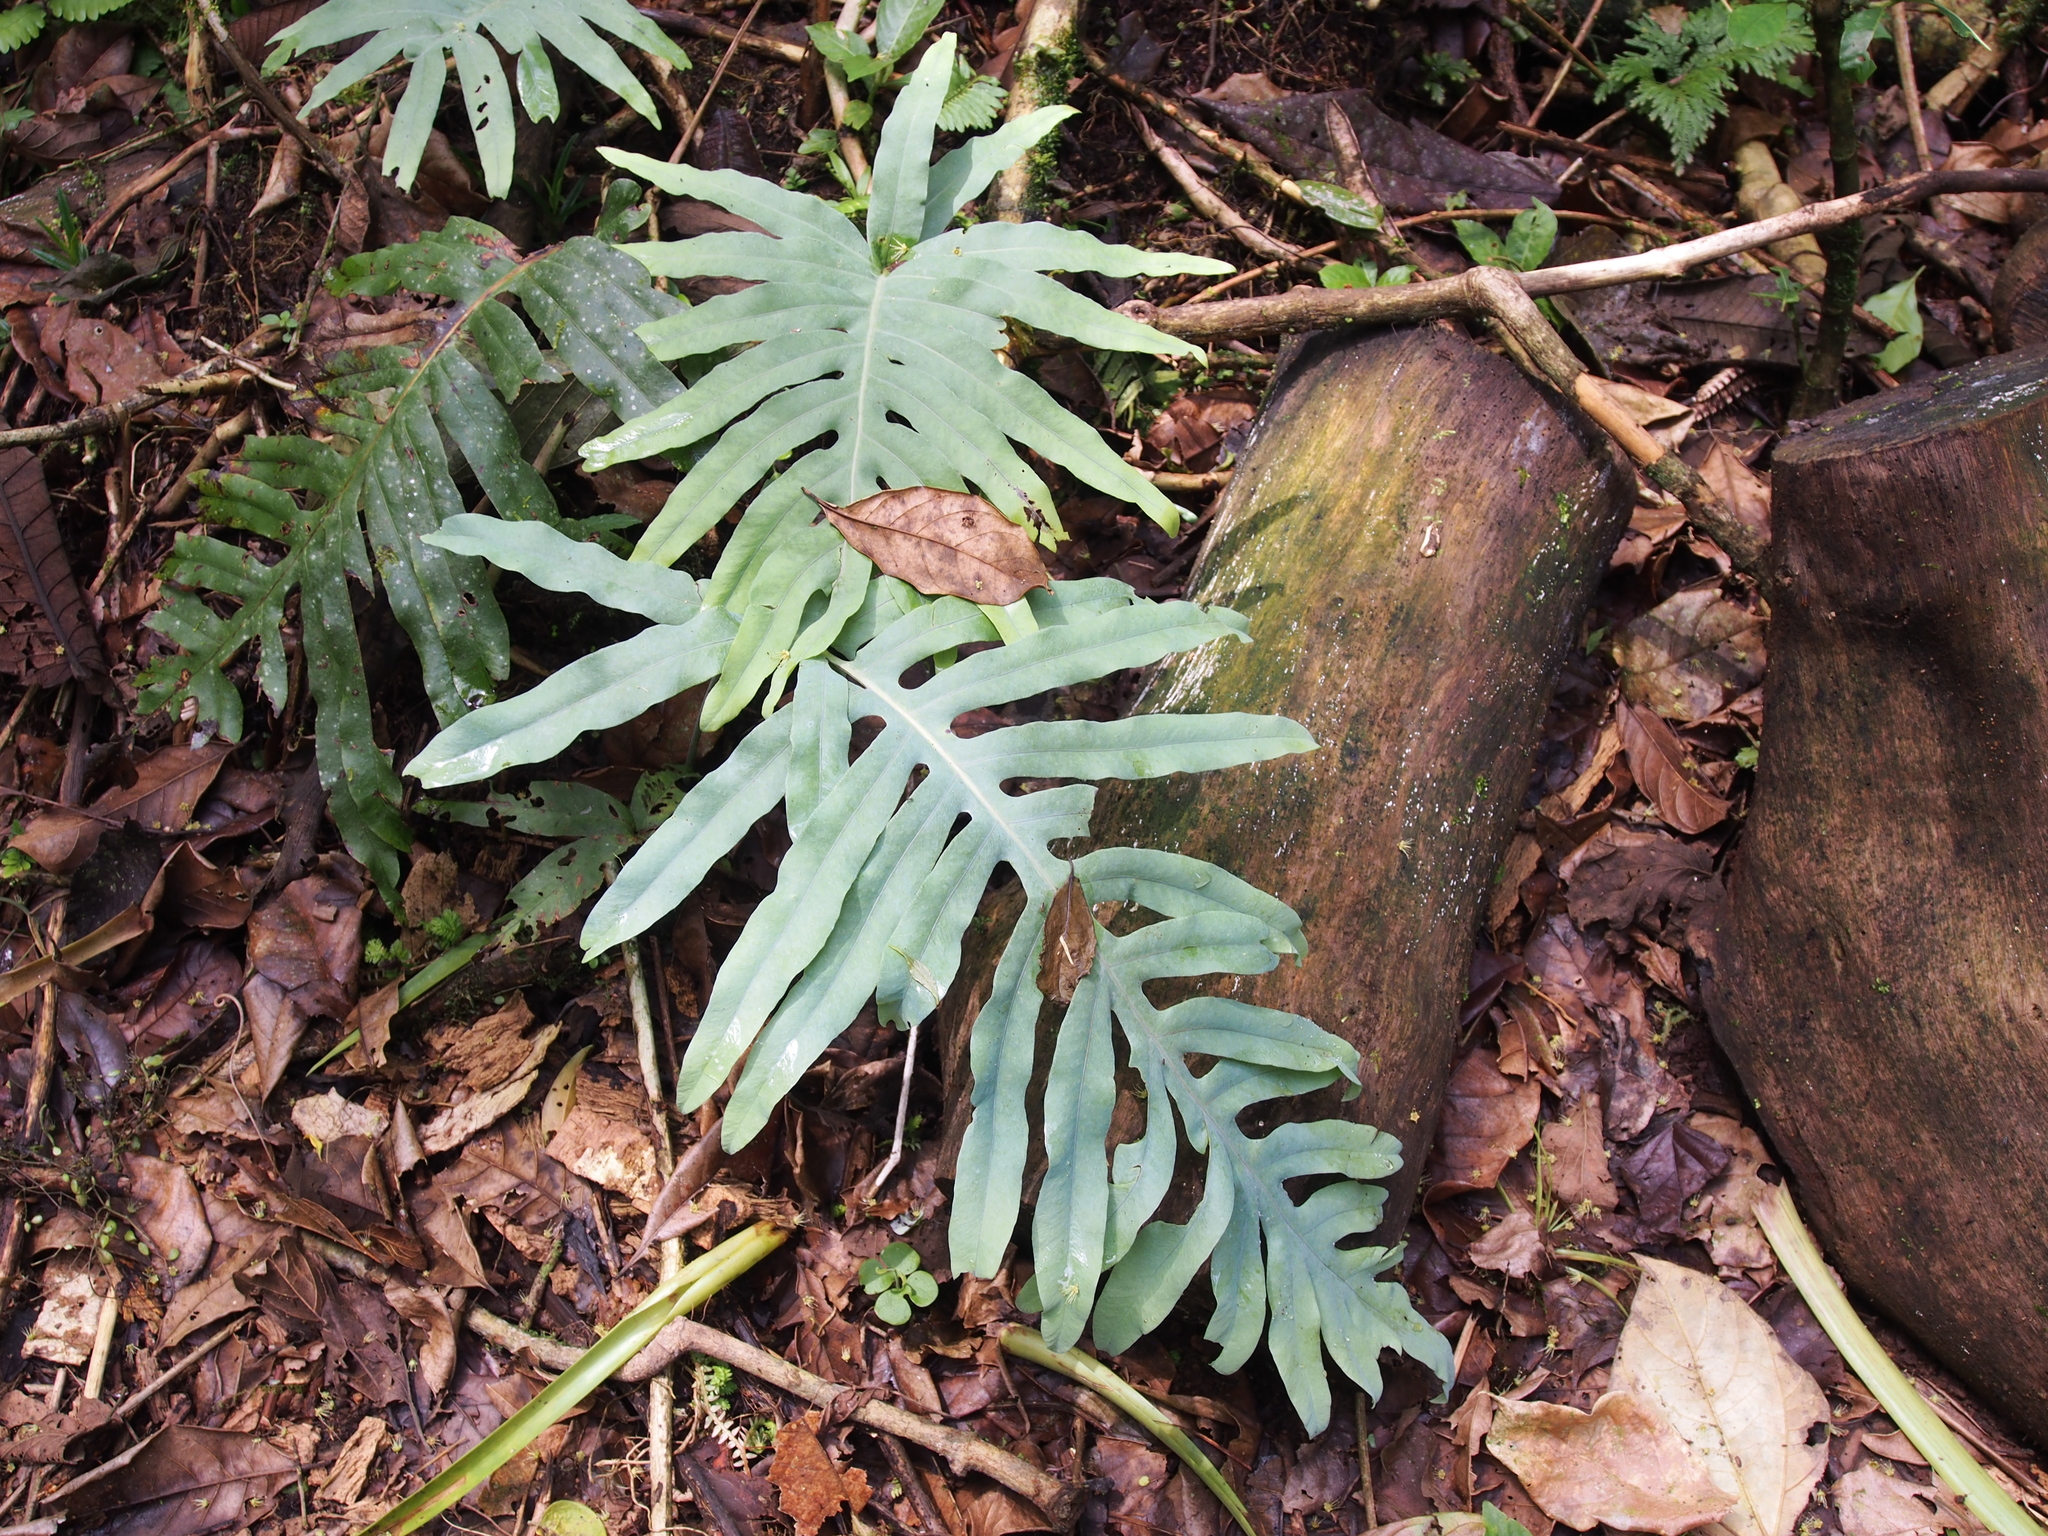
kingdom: Plantae
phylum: Tracheophyta
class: Polypodiopsida
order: Polypodiales
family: Polypodiaceae
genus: Phlebodium
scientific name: Phlebodium pseudoaureum
